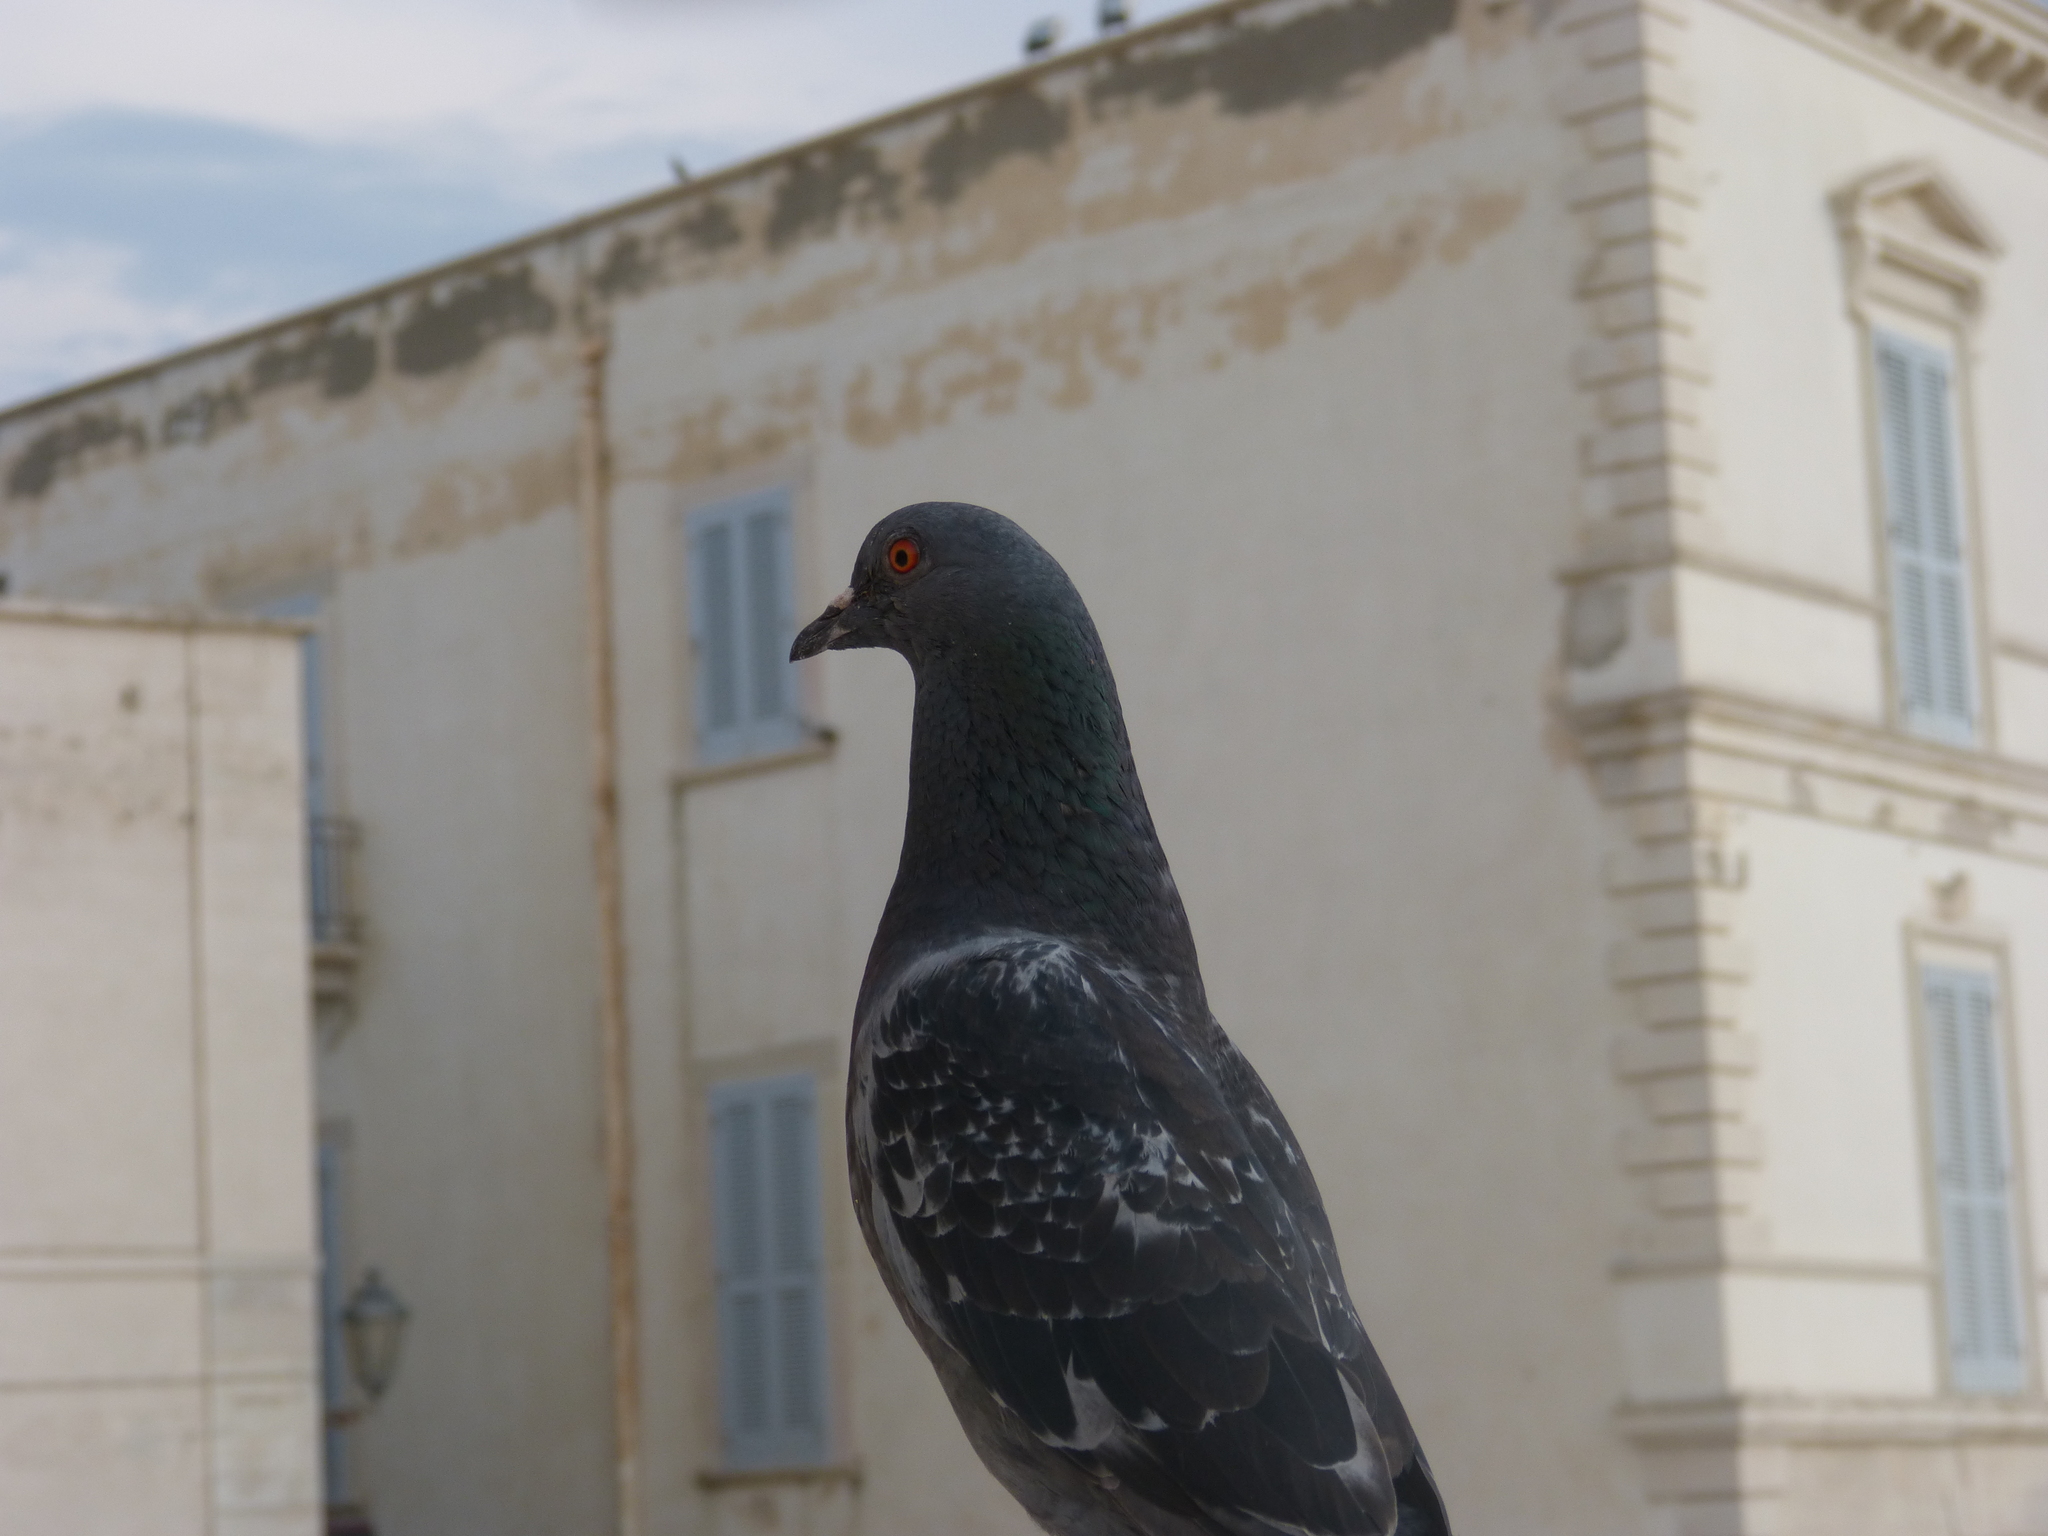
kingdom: Animalia
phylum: Chordata
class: Aves
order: Columbiformes
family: Columbidae
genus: Columba
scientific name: Columba livia
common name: Rock pigeon
